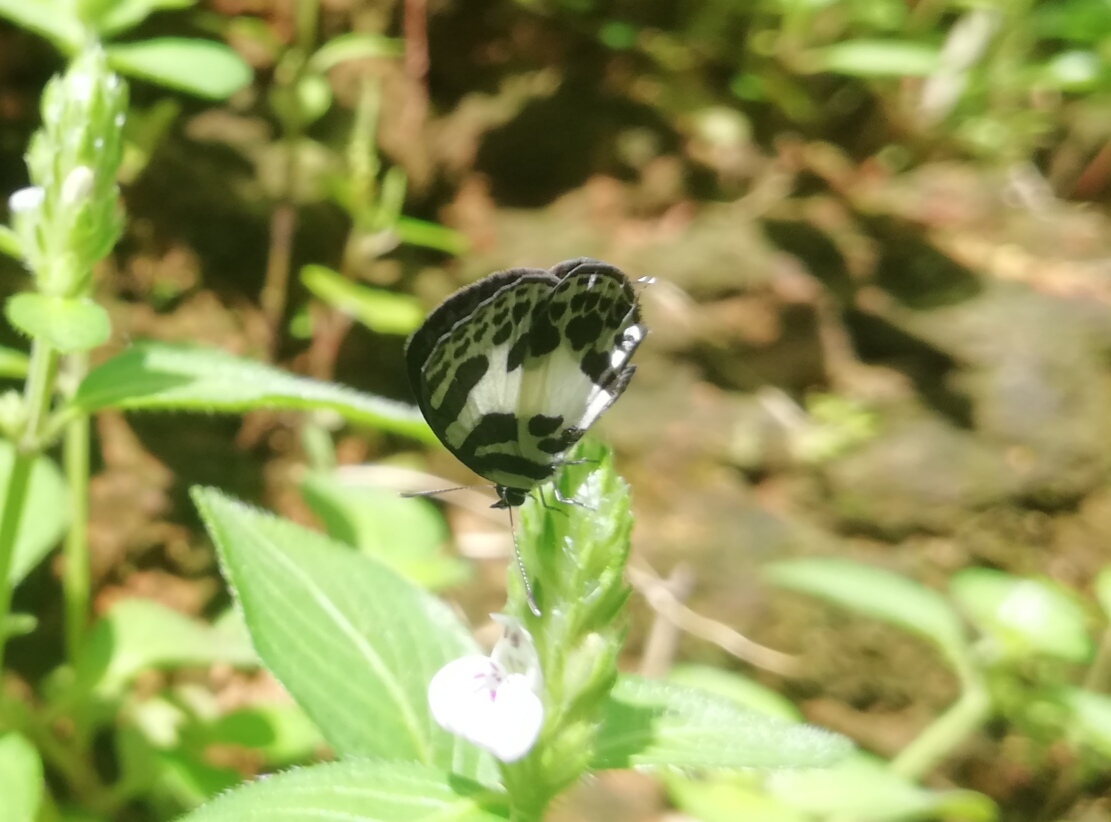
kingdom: Animalia
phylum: Arthropoda
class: Insecta
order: Lepidoptera
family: Lycaenidae
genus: Discolampa
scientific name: Discolampa ethion
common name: Banded blue pierrot
